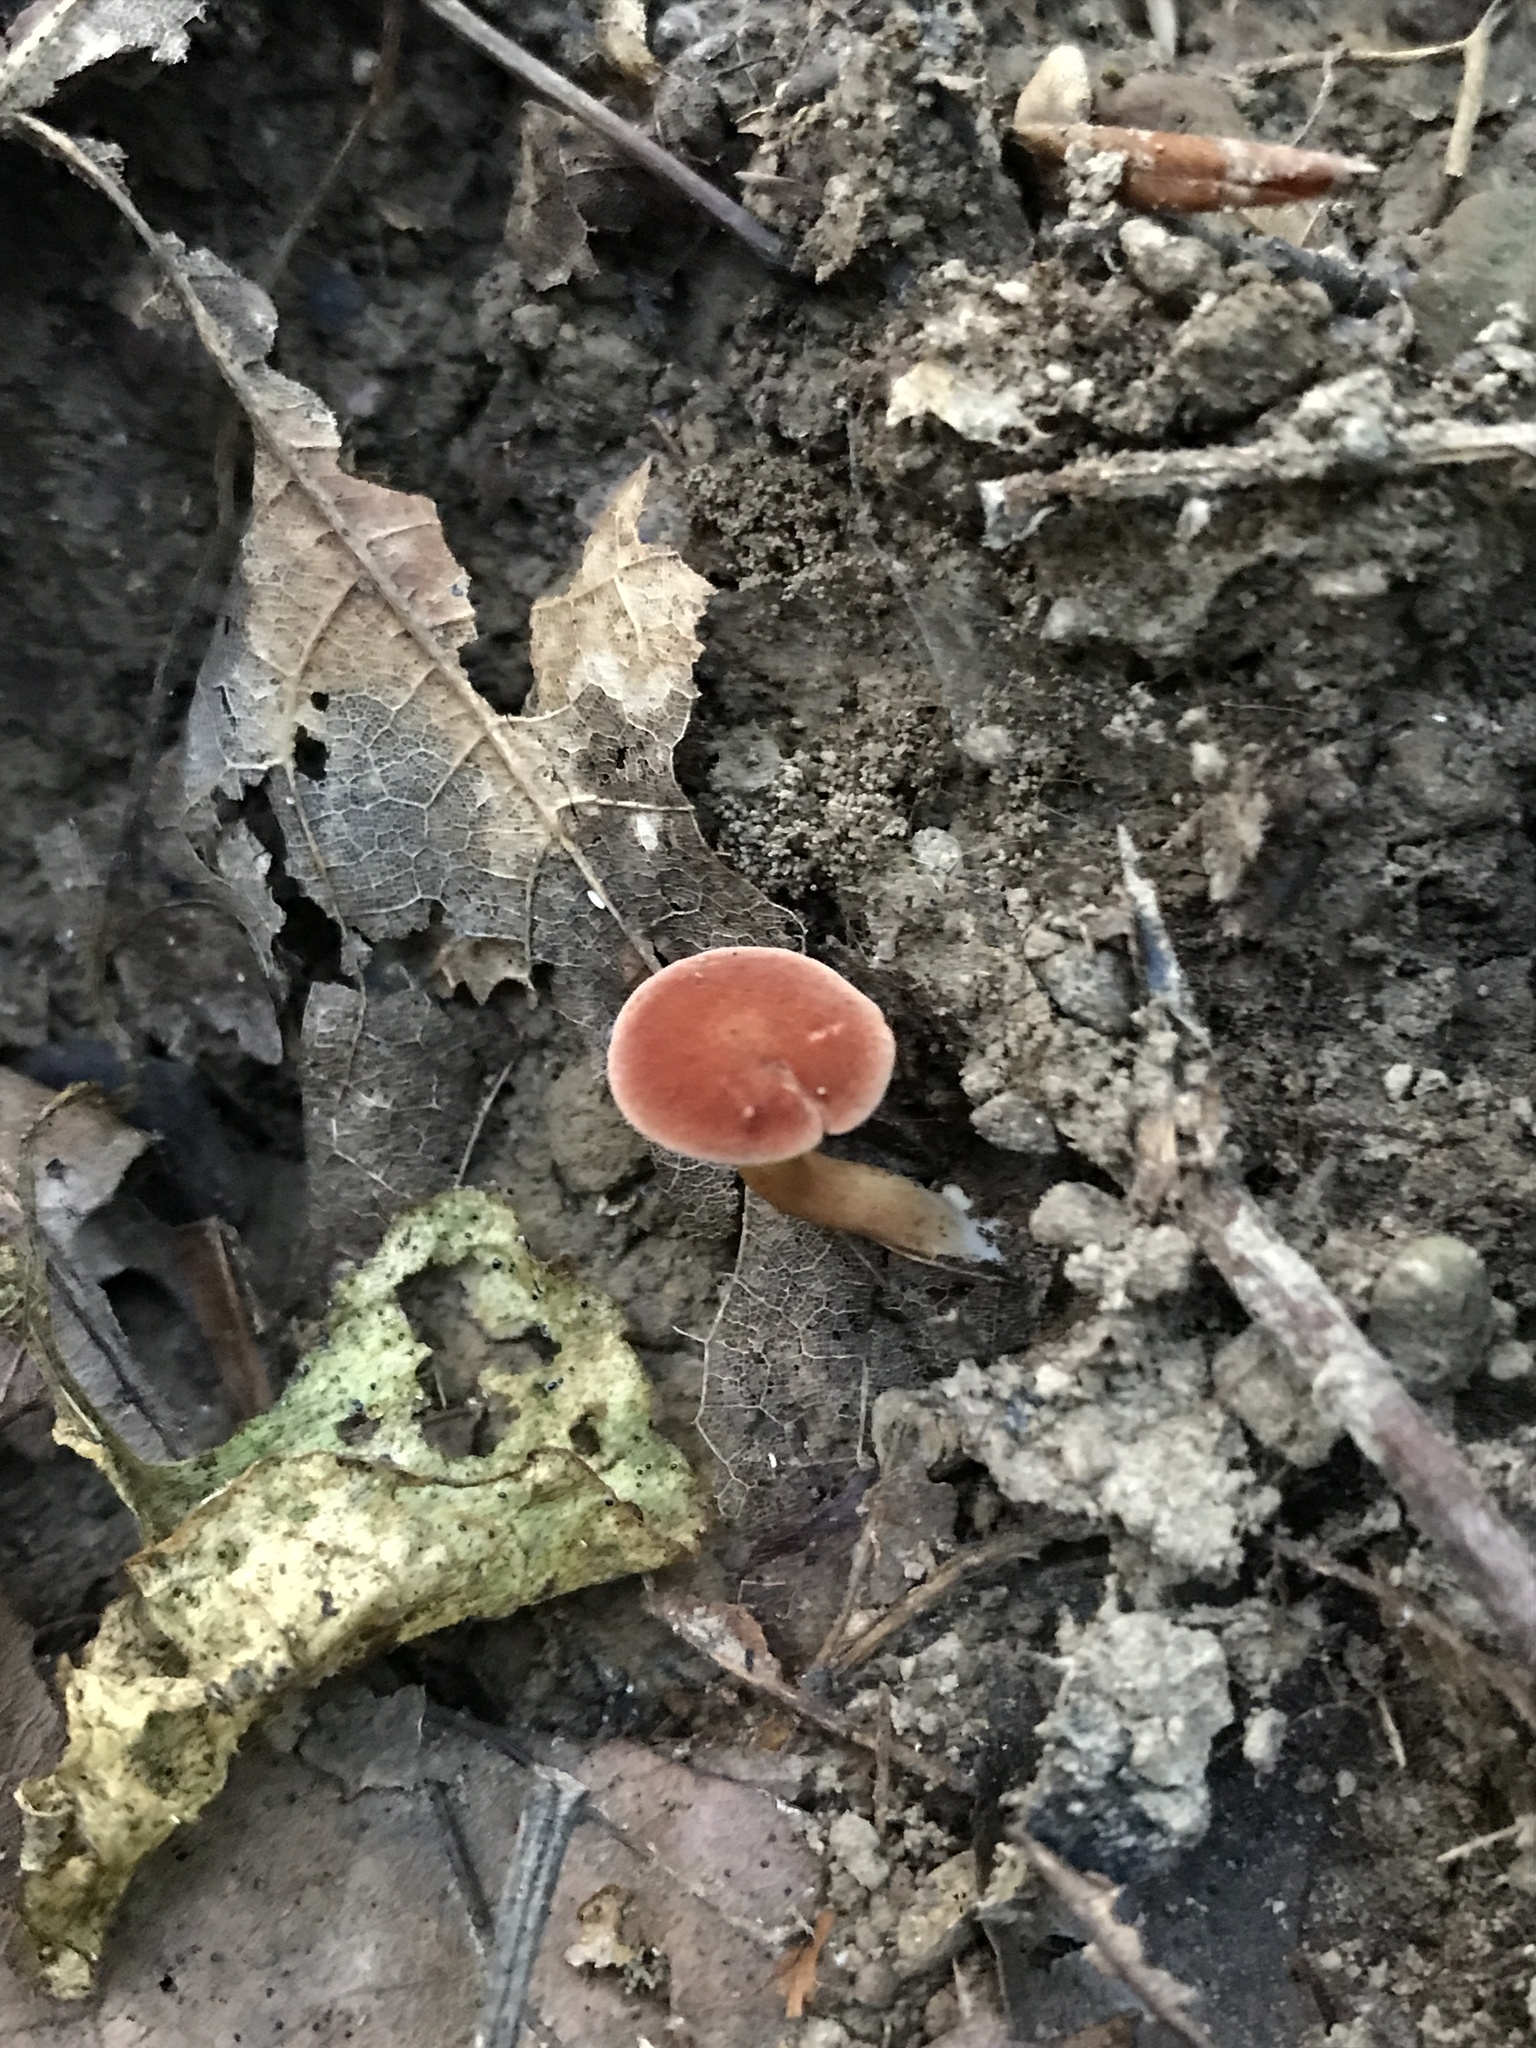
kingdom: Fungi
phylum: Basidiomycota
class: Agaricomycetes
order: Boletales
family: Boletaceae
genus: Phylloporus
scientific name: Phylloporus leucomycelinus
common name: Gilled bolete
